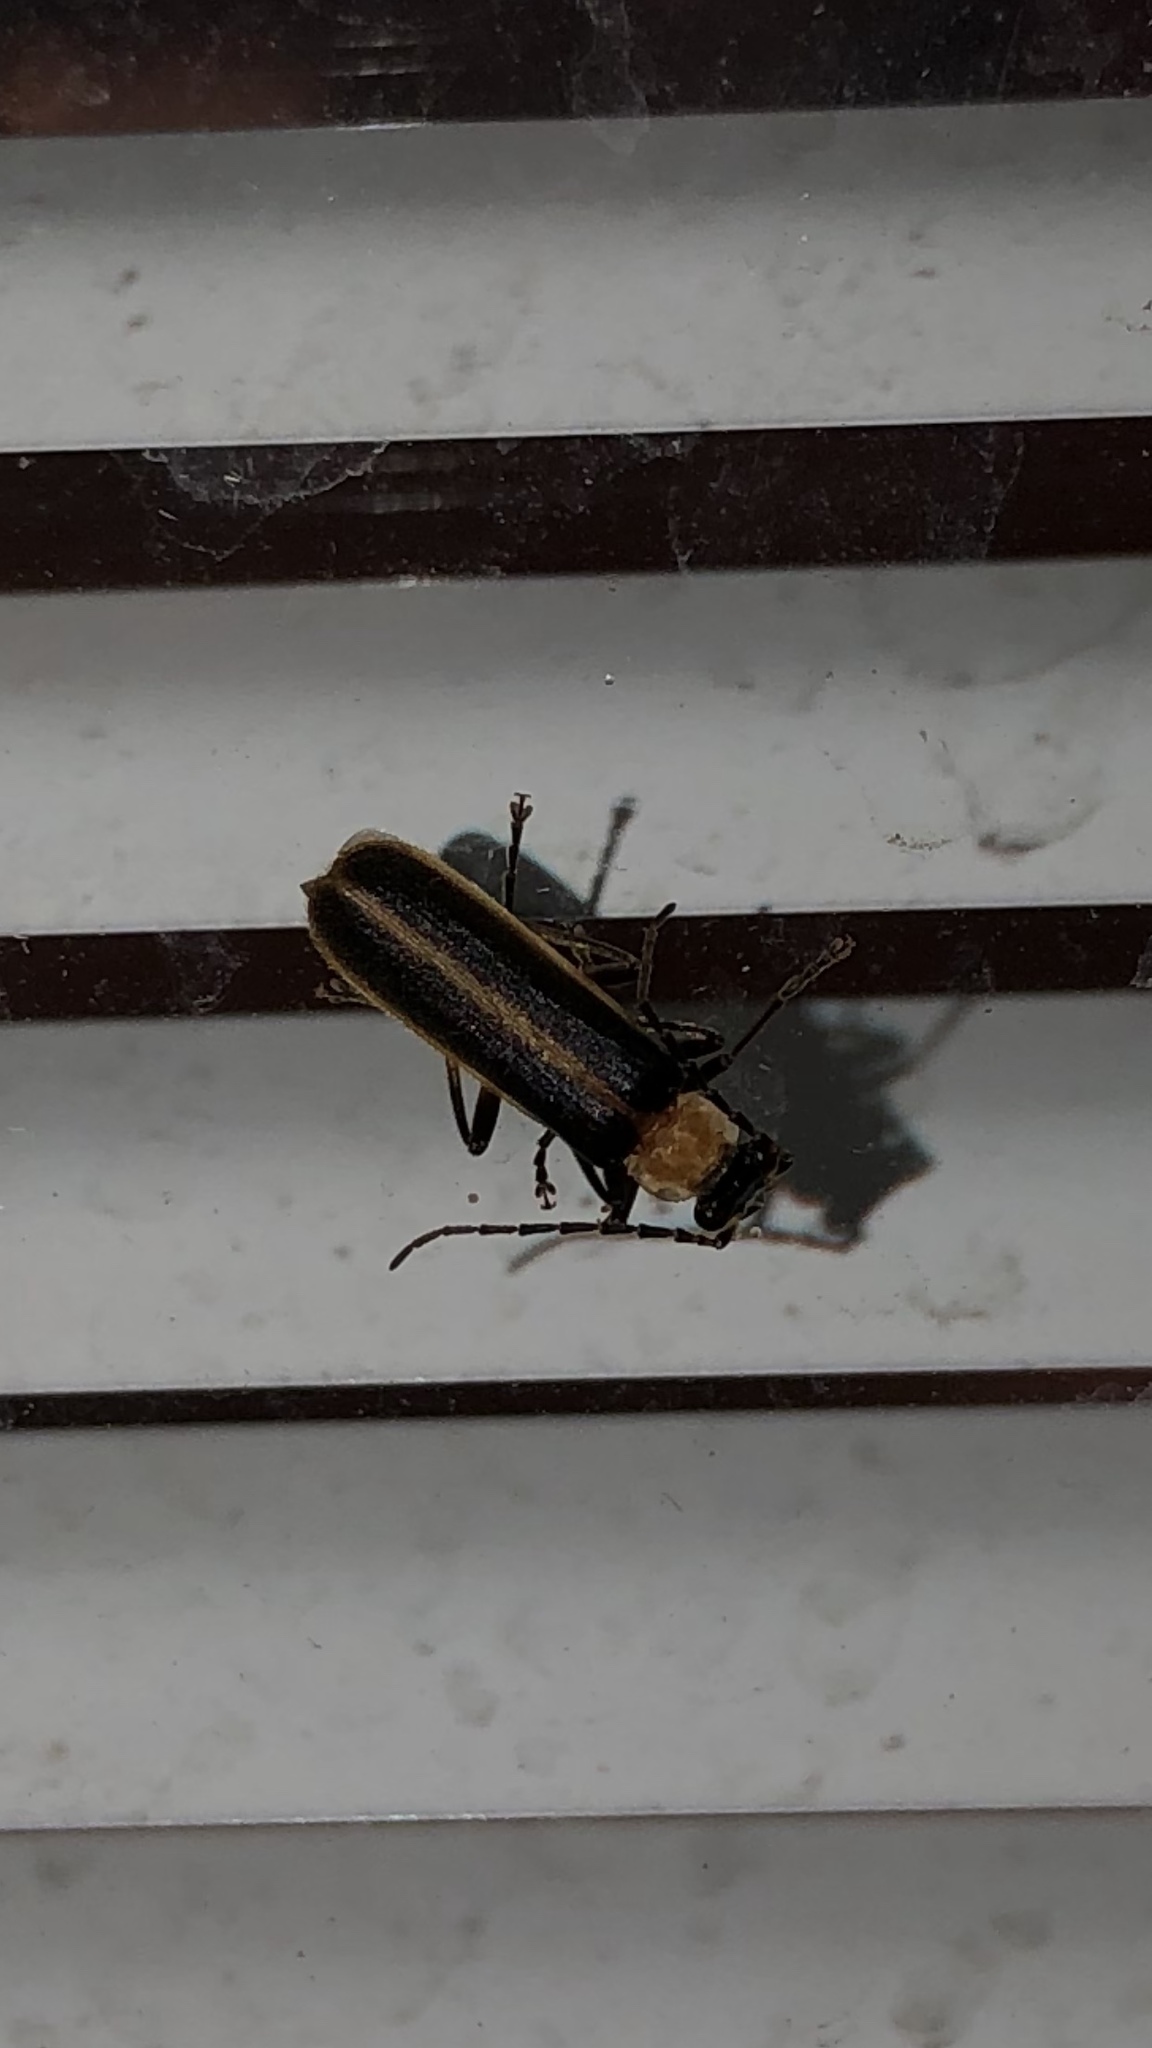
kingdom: Animalia
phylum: Arthropoda
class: Insecta
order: Coleoptera
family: Cantharidae
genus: Podabrus
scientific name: Podabrus flavicollis
